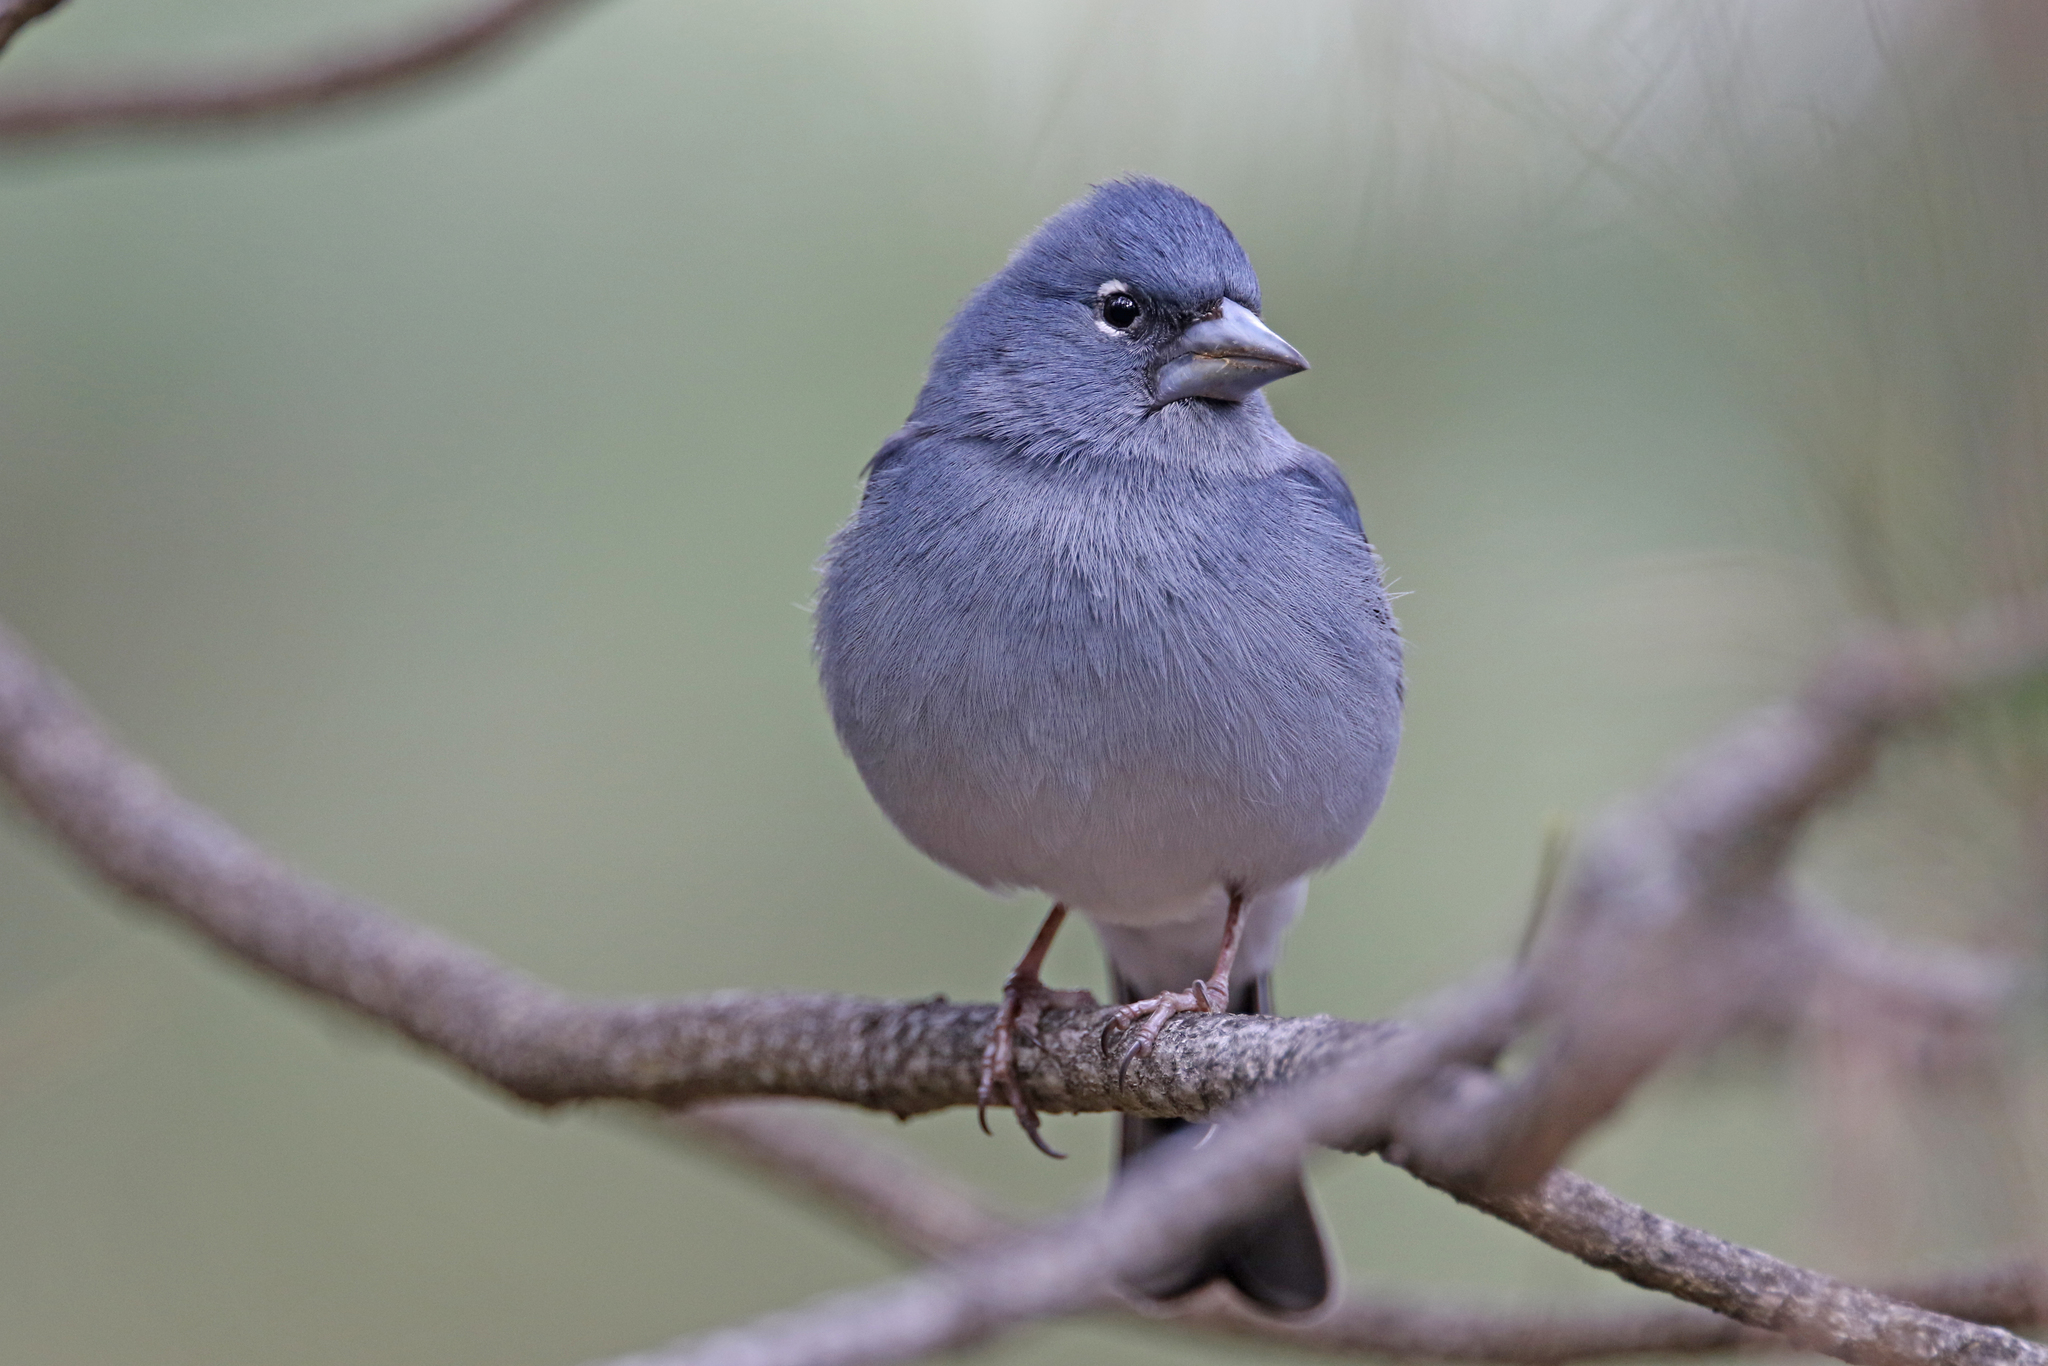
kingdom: Animalia
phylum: Chordata
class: Aves
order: Passeriformes
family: Fringillidae
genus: Fringilla
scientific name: Fringilla teydea
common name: Blue chaffinch
